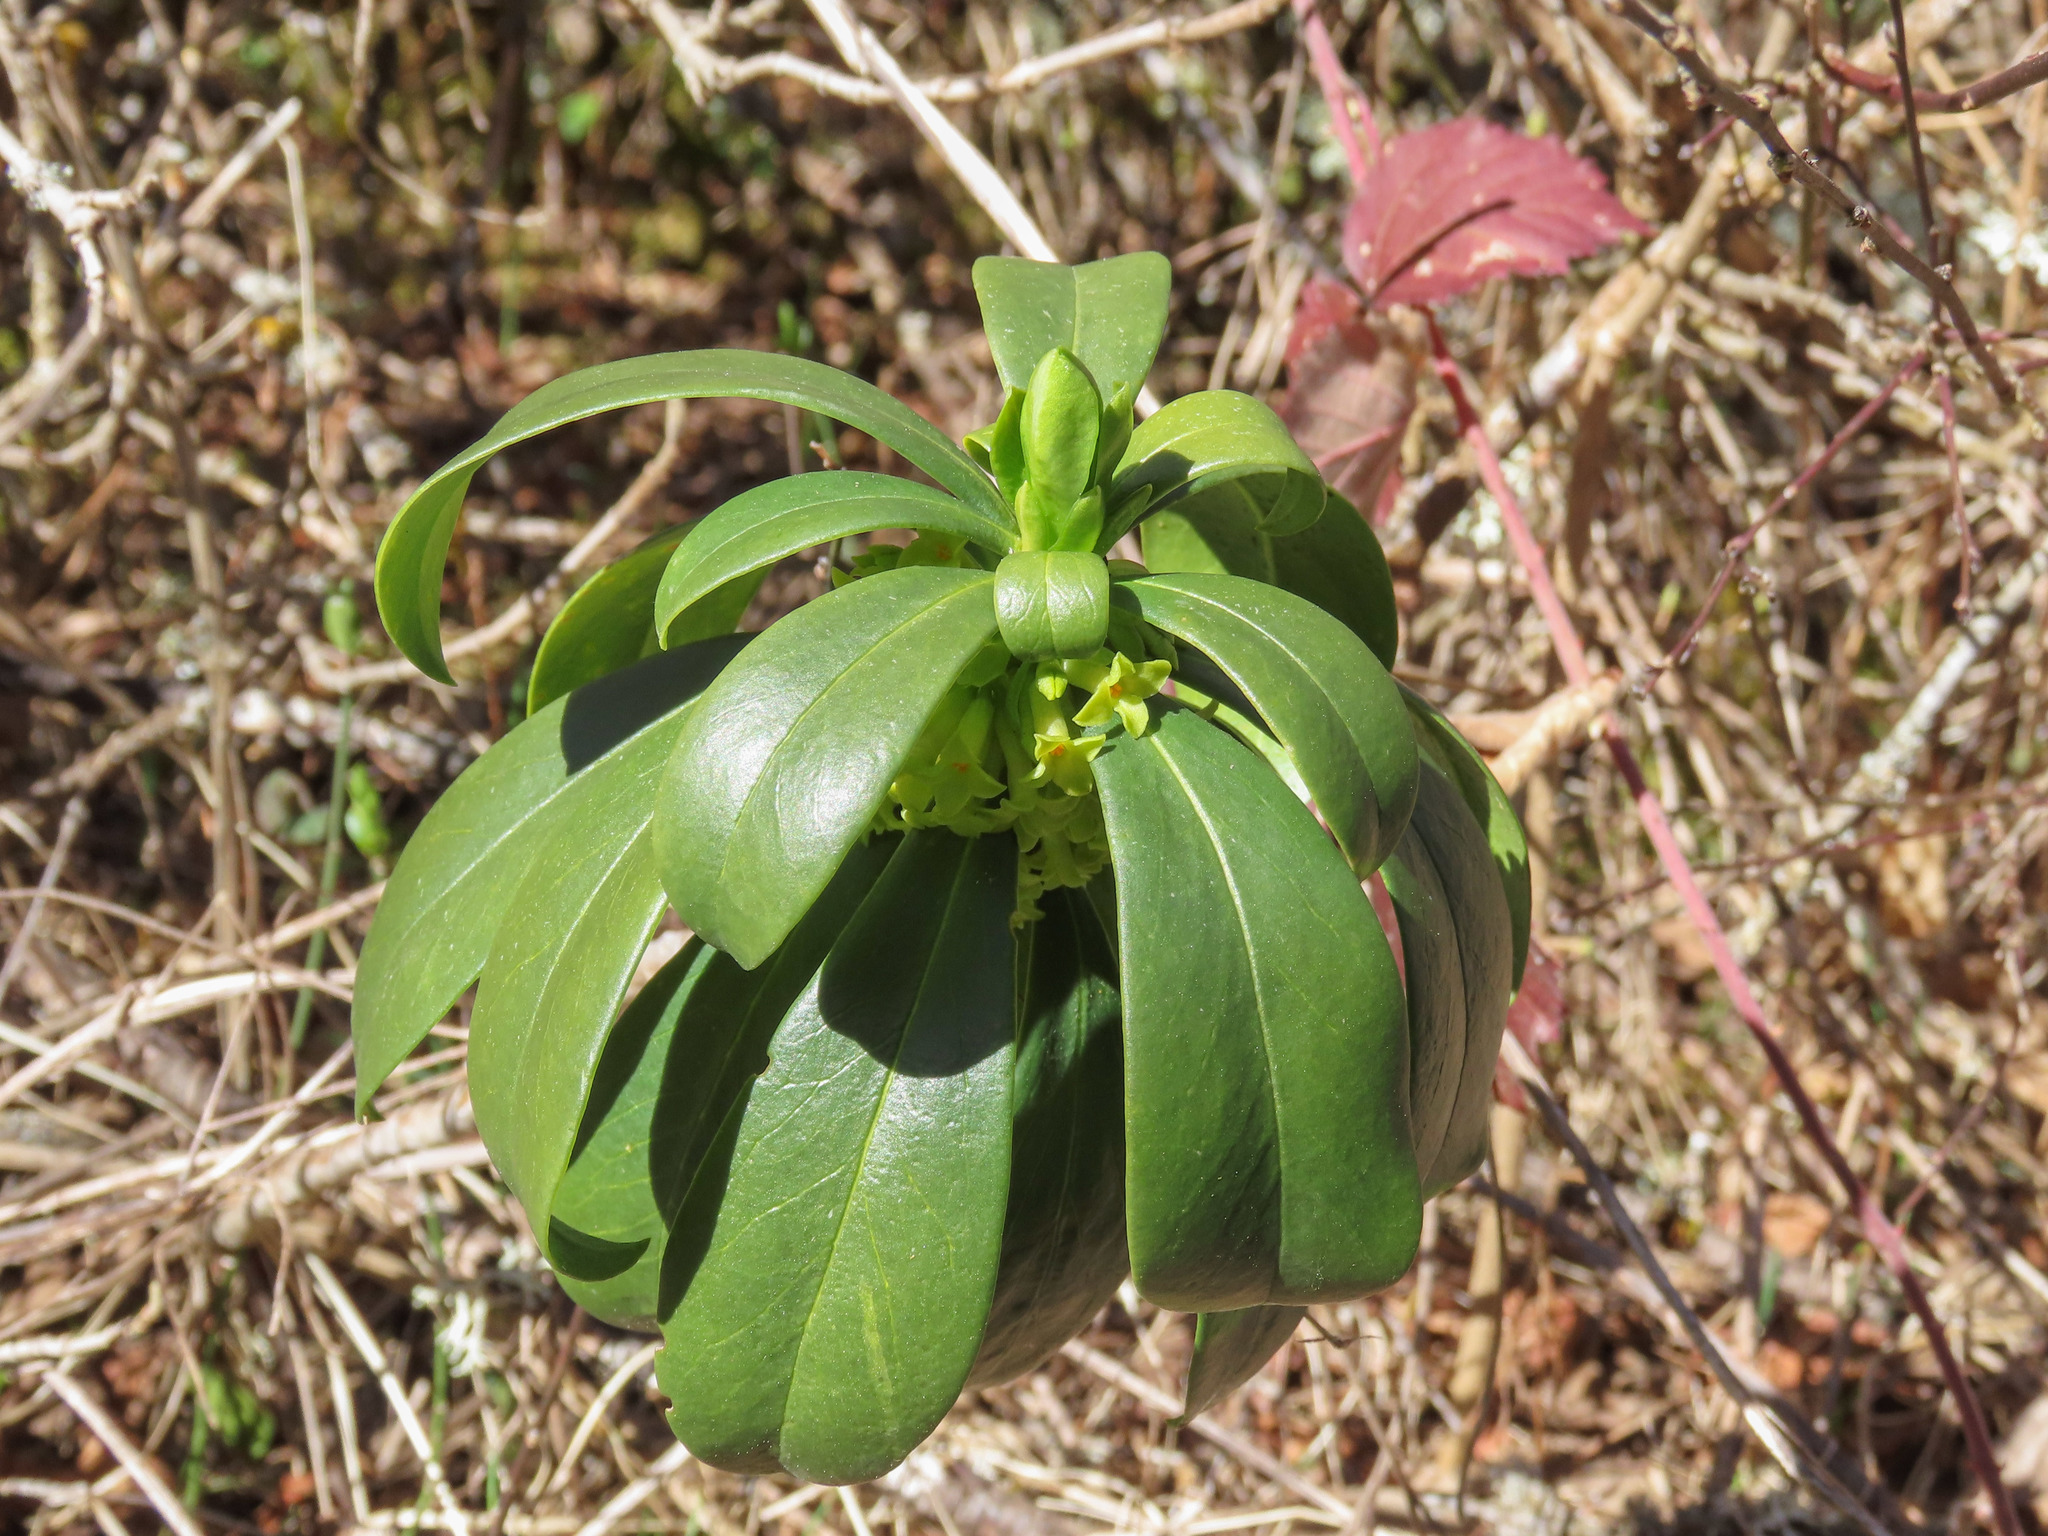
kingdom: Plantae
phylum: Tracheophyta
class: Magnoliopsida
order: Malvales
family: Thymelaeaceae
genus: Daphne
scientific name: Daphne laureola
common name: Spurge-laurel
